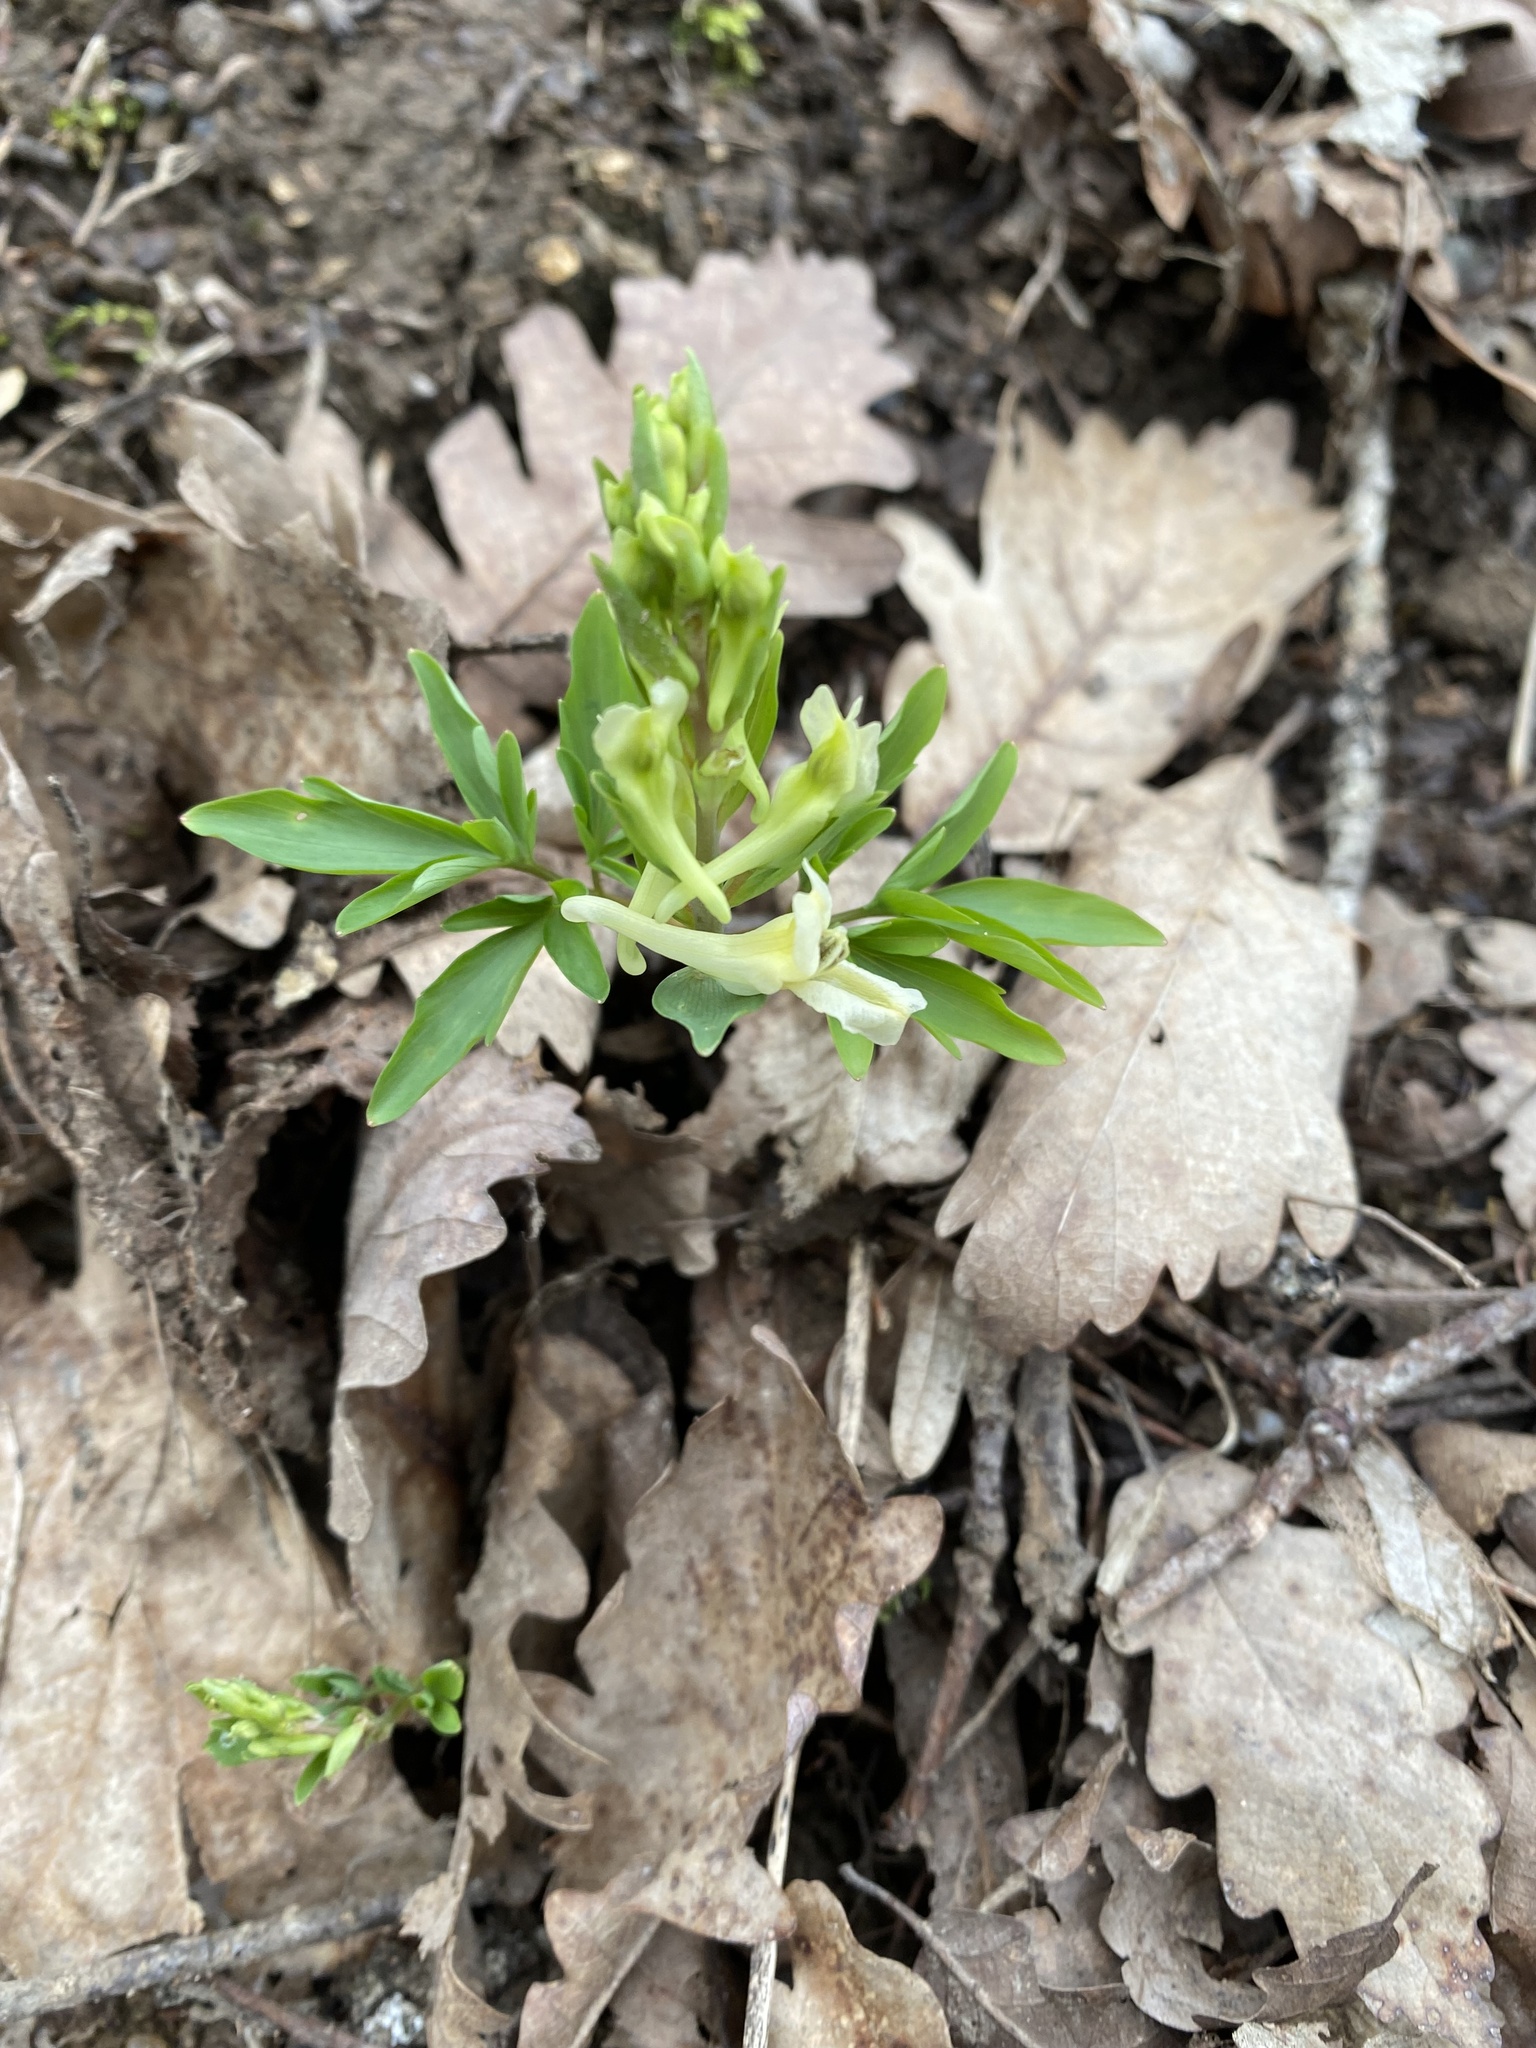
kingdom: Plantae
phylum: Tracheophyta
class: Magnoliopsida
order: Ranunculales
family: Papaveraceae
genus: Corydalis
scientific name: Corydalis cava
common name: Hollowroot
